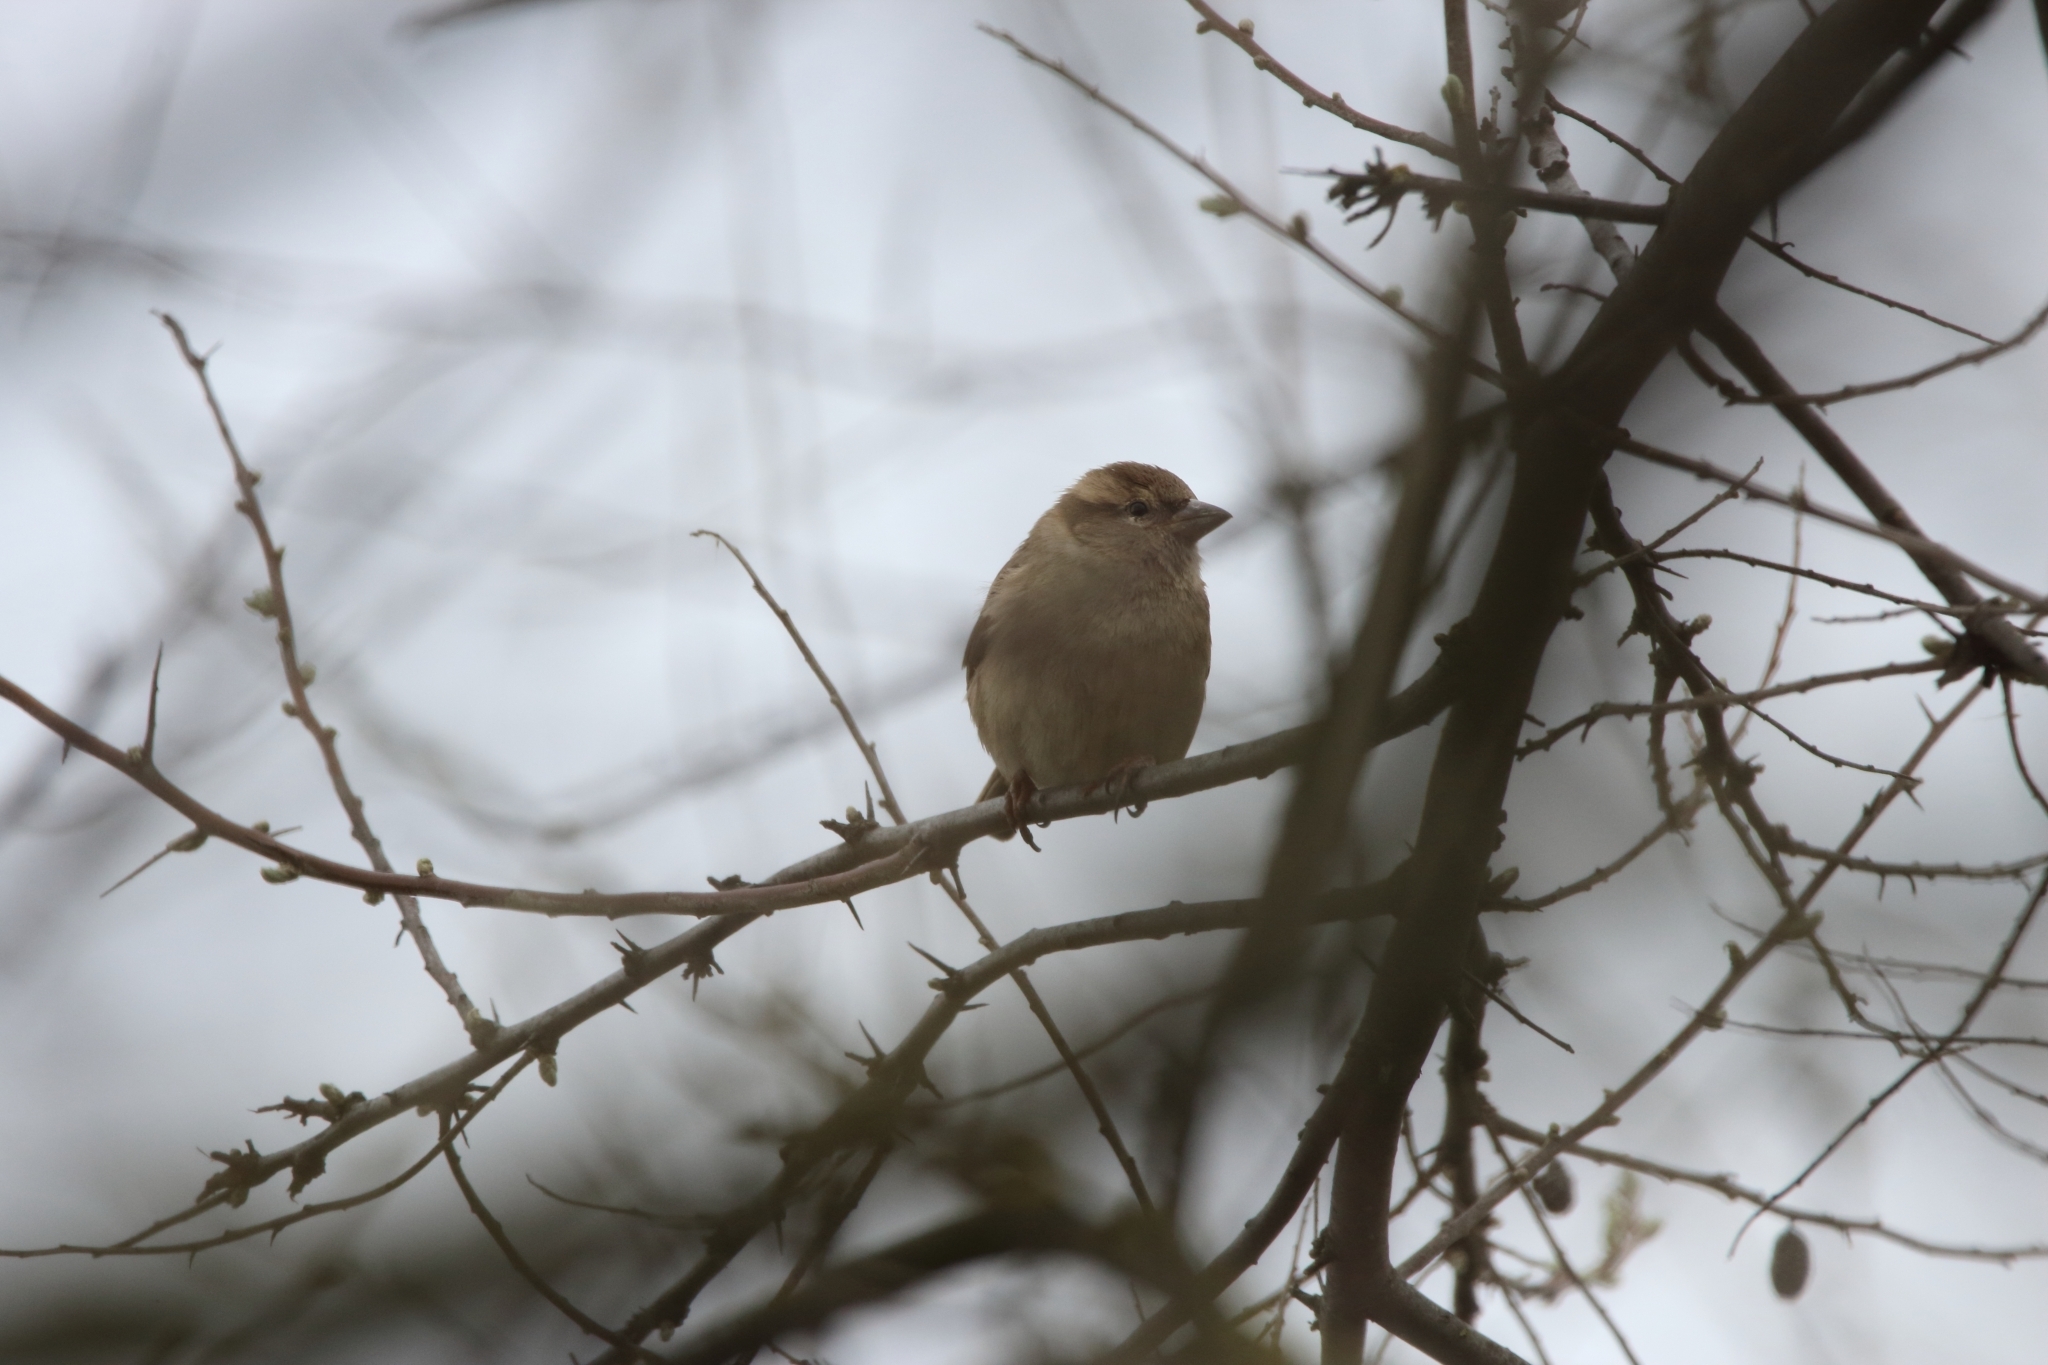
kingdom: Animalia
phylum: Chordata
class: Aves
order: Passeriformes
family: Passeridae
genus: Passer
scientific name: Passer domesticus
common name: House sparrow
